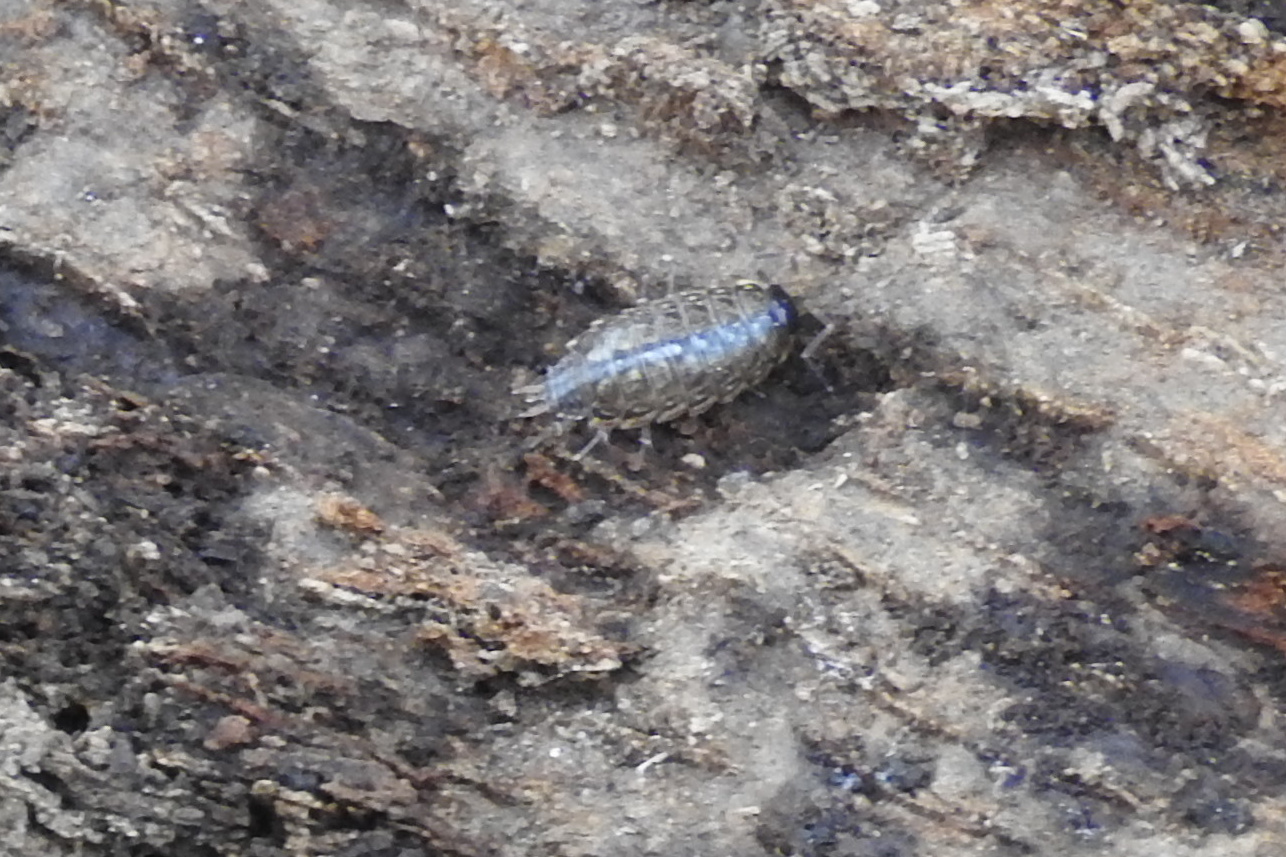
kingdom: Animalia
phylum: Arthropoda
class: Malacostraca
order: Isopoda
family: Philosciidae
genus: Philoscia
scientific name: Philoscia muscorum
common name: Common striped woodlouse
